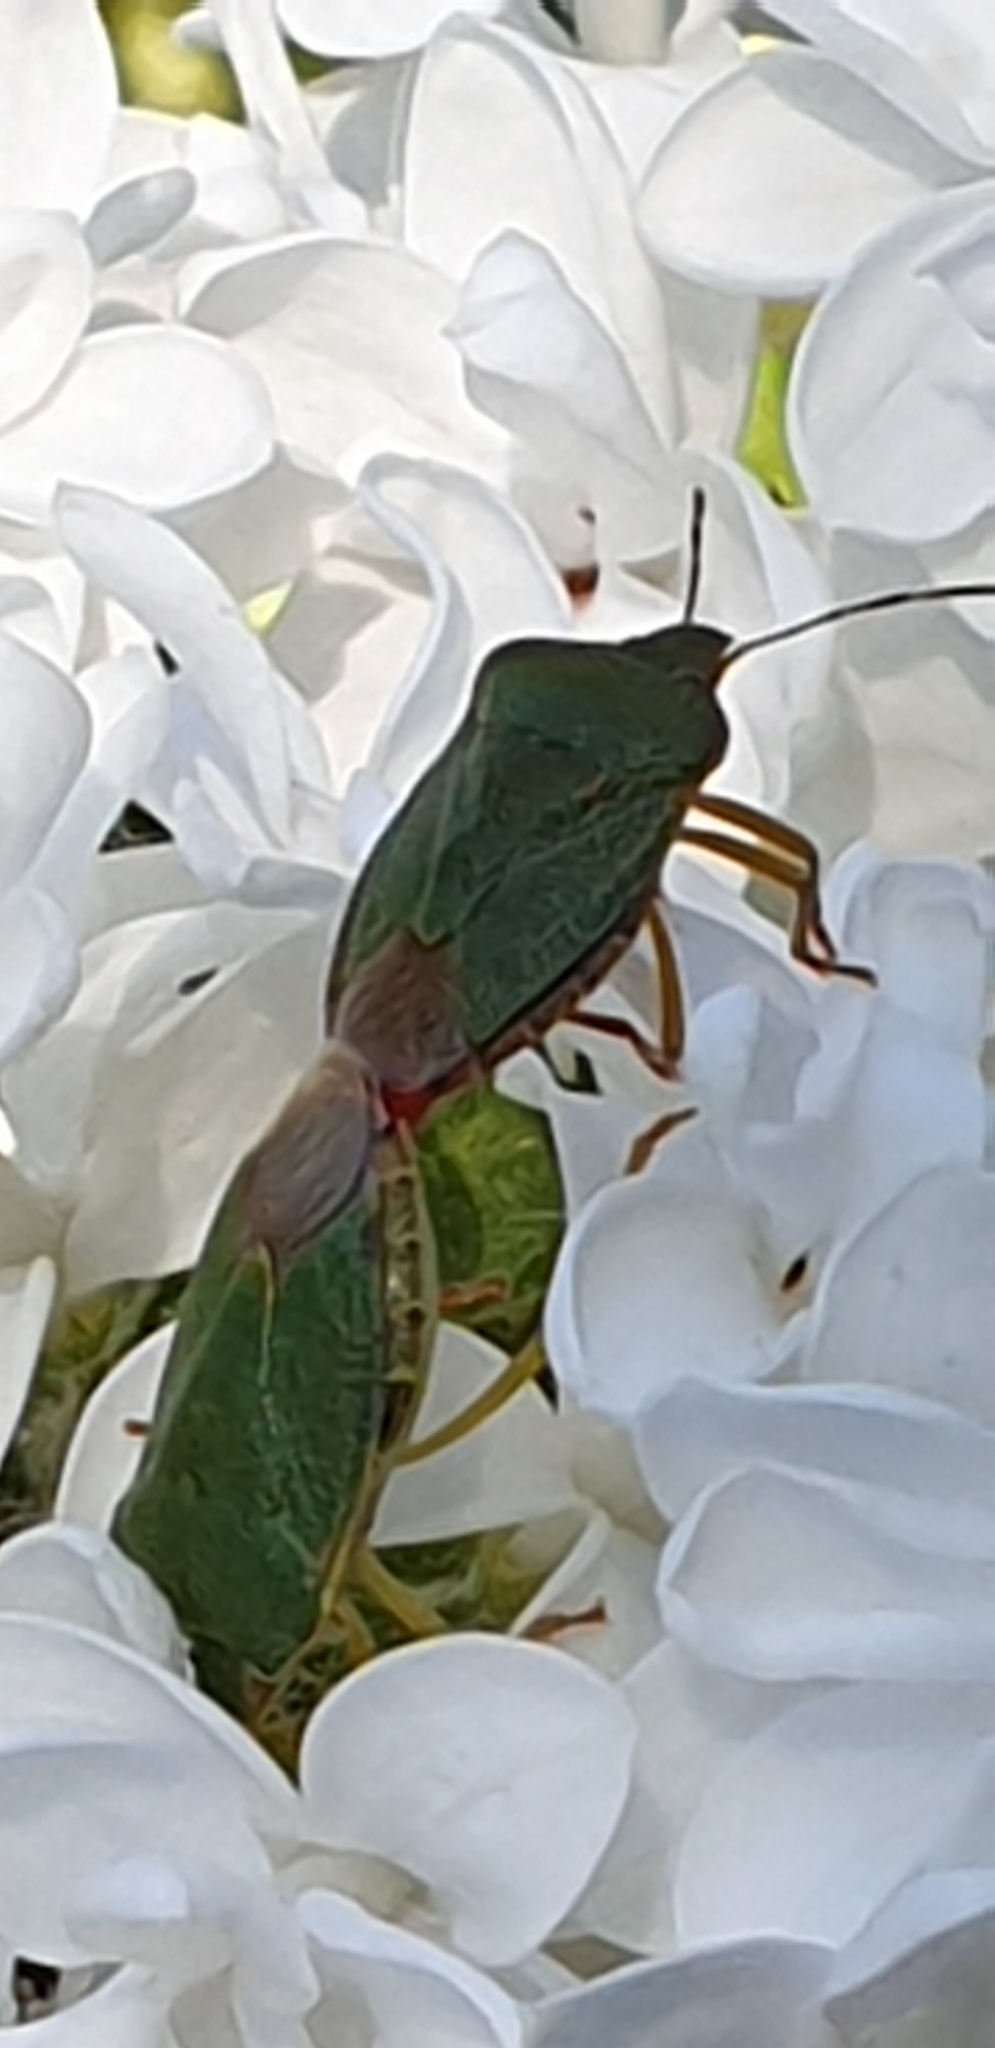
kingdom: Animalia
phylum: Arthropoda
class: Insecta
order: Hemiptera
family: Pentatomidae
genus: Palomena
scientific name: Palomena prasina
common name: Green shieldbug
